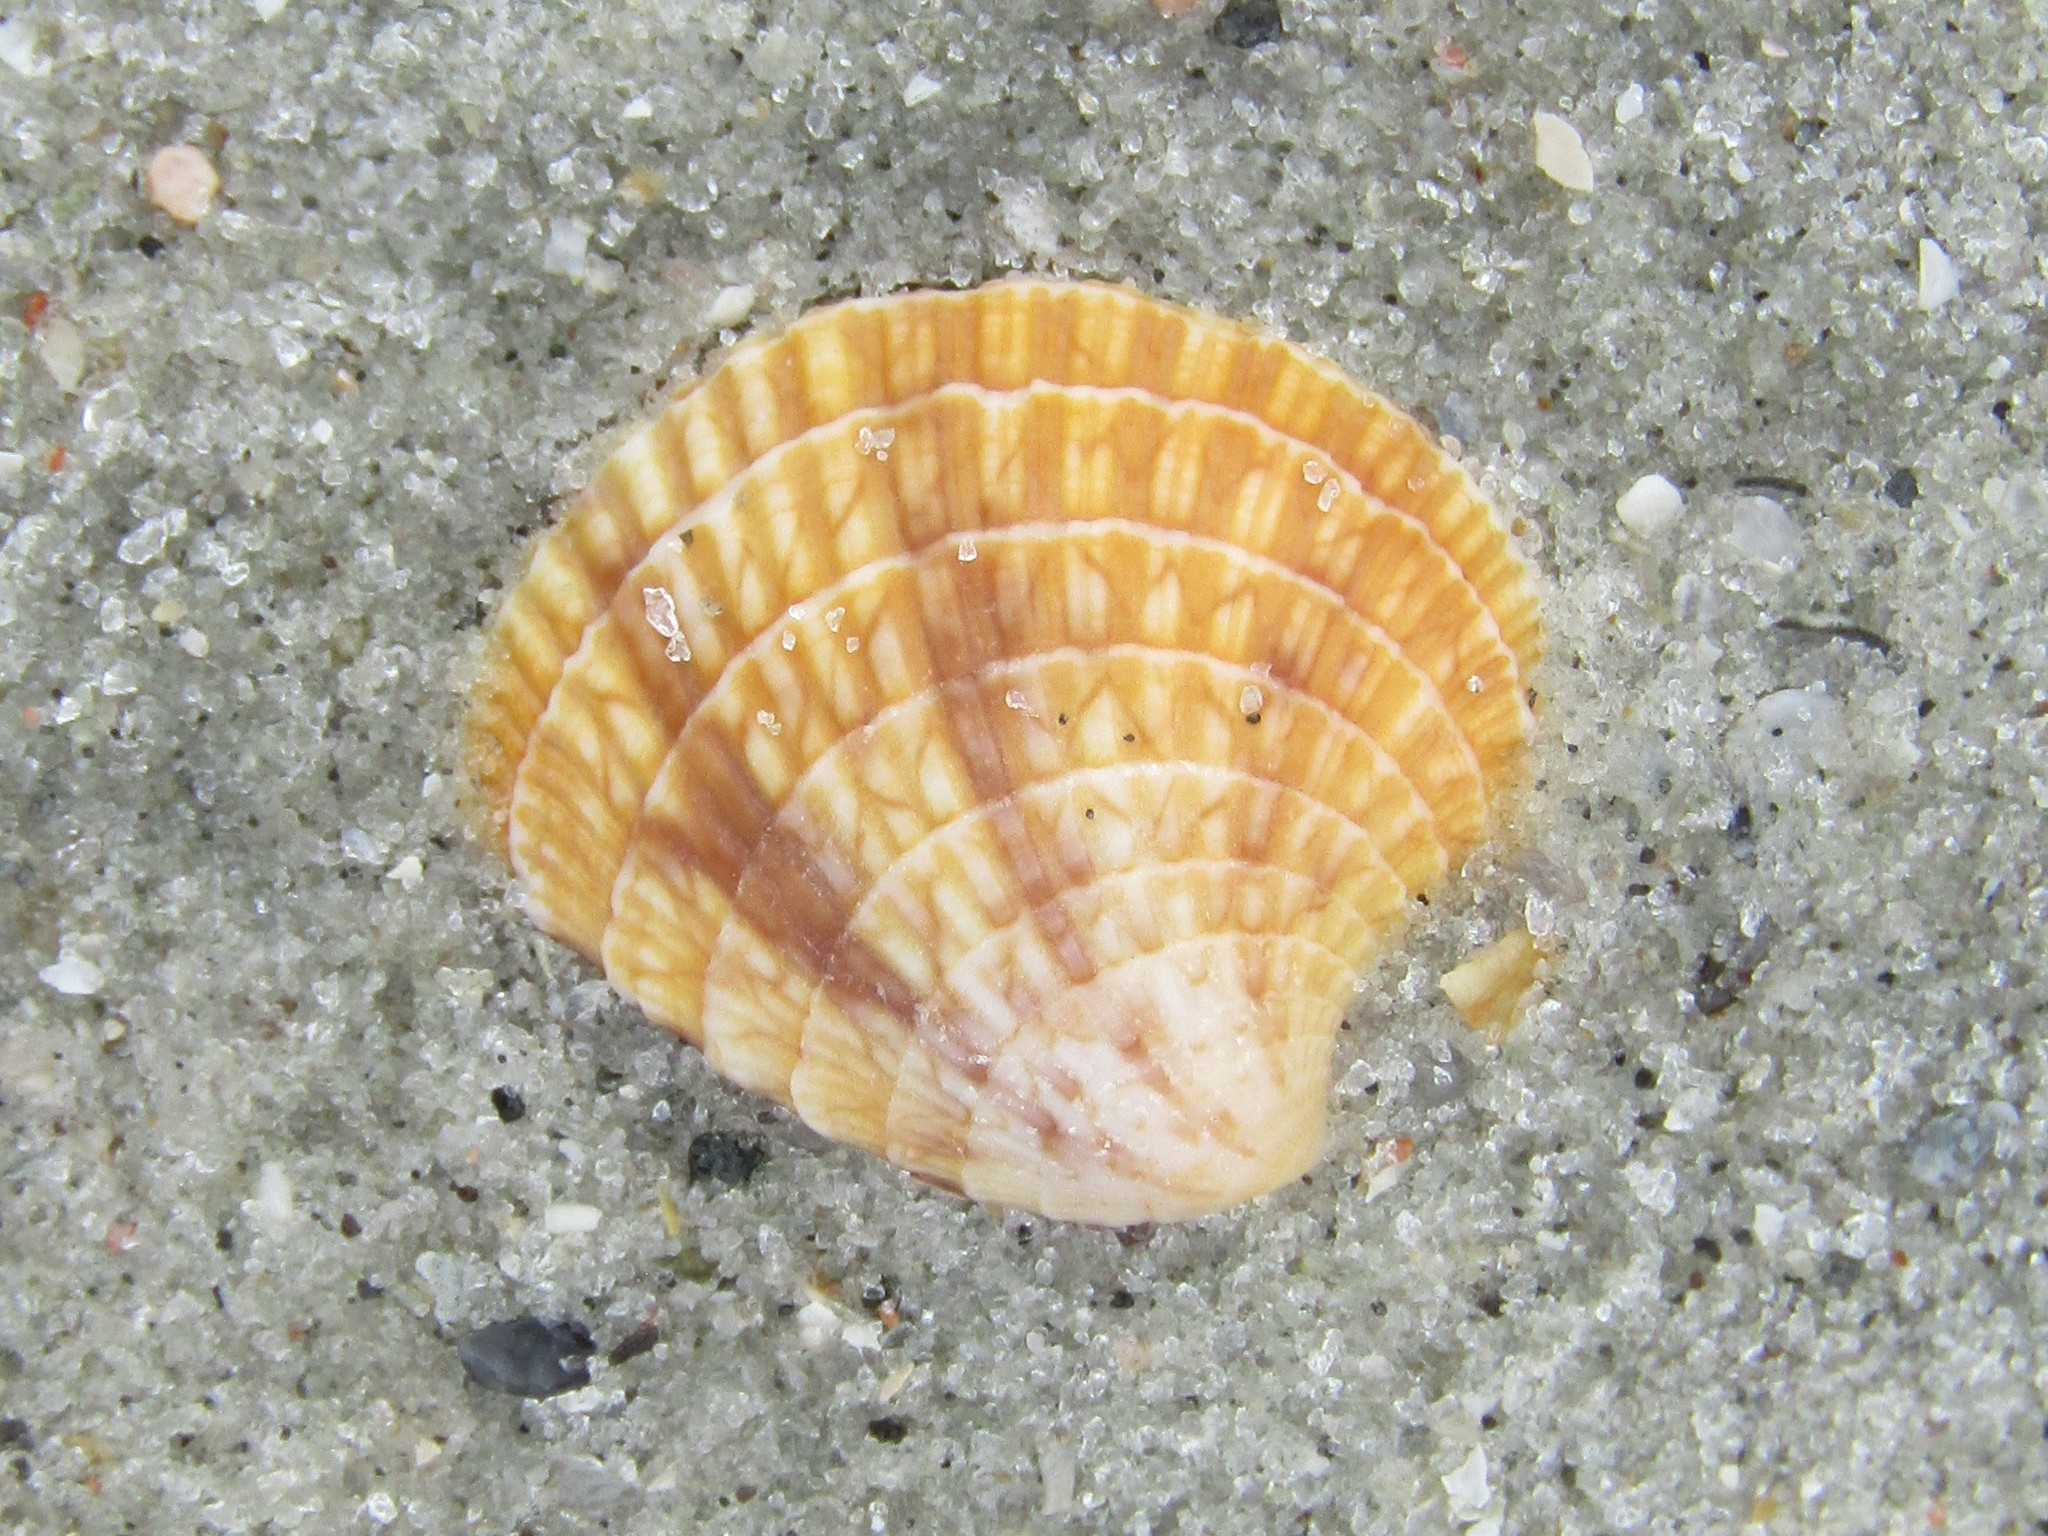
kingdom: Animalia
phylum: Mollusca
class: Bivalvia
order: Venerida
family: Veneridae
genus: Chione
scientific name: Chione elevata
